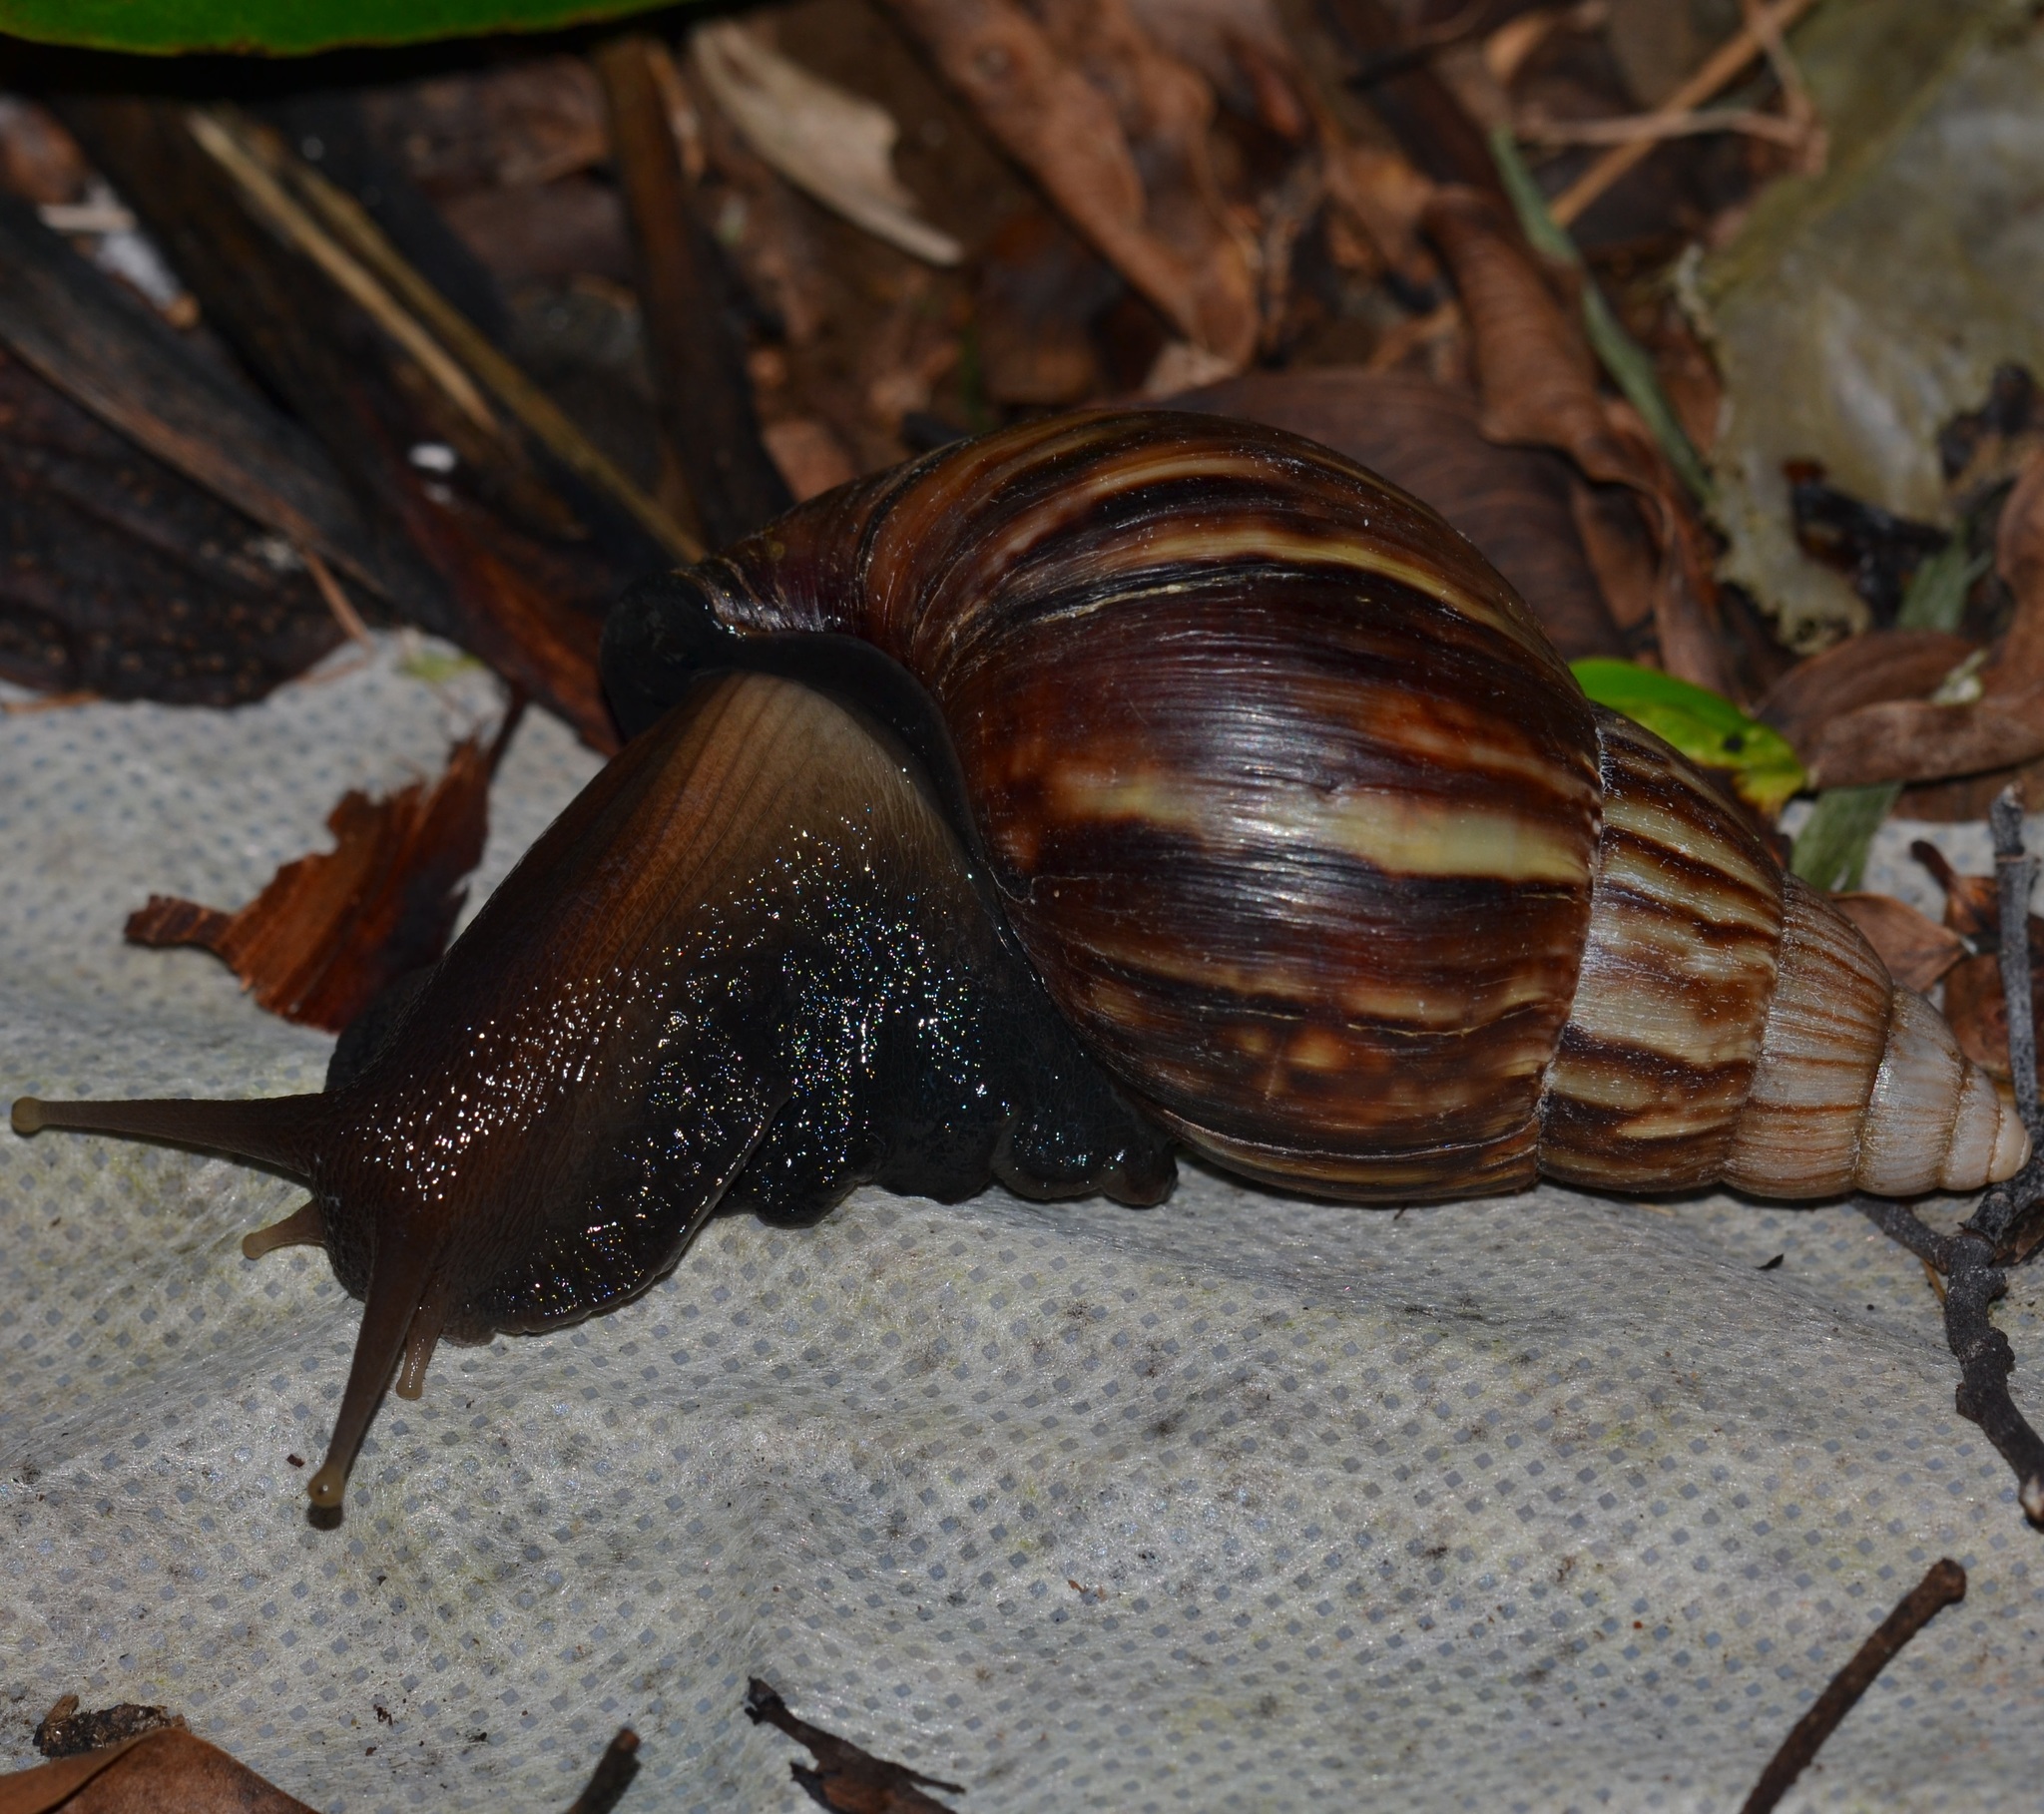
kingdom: Animalia
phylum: Mollusca
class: Gastropoda
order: Stylommatophora
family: Achatinidae
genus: Lissachatina
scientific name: Lissachatina fulica
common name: Giant african snail
